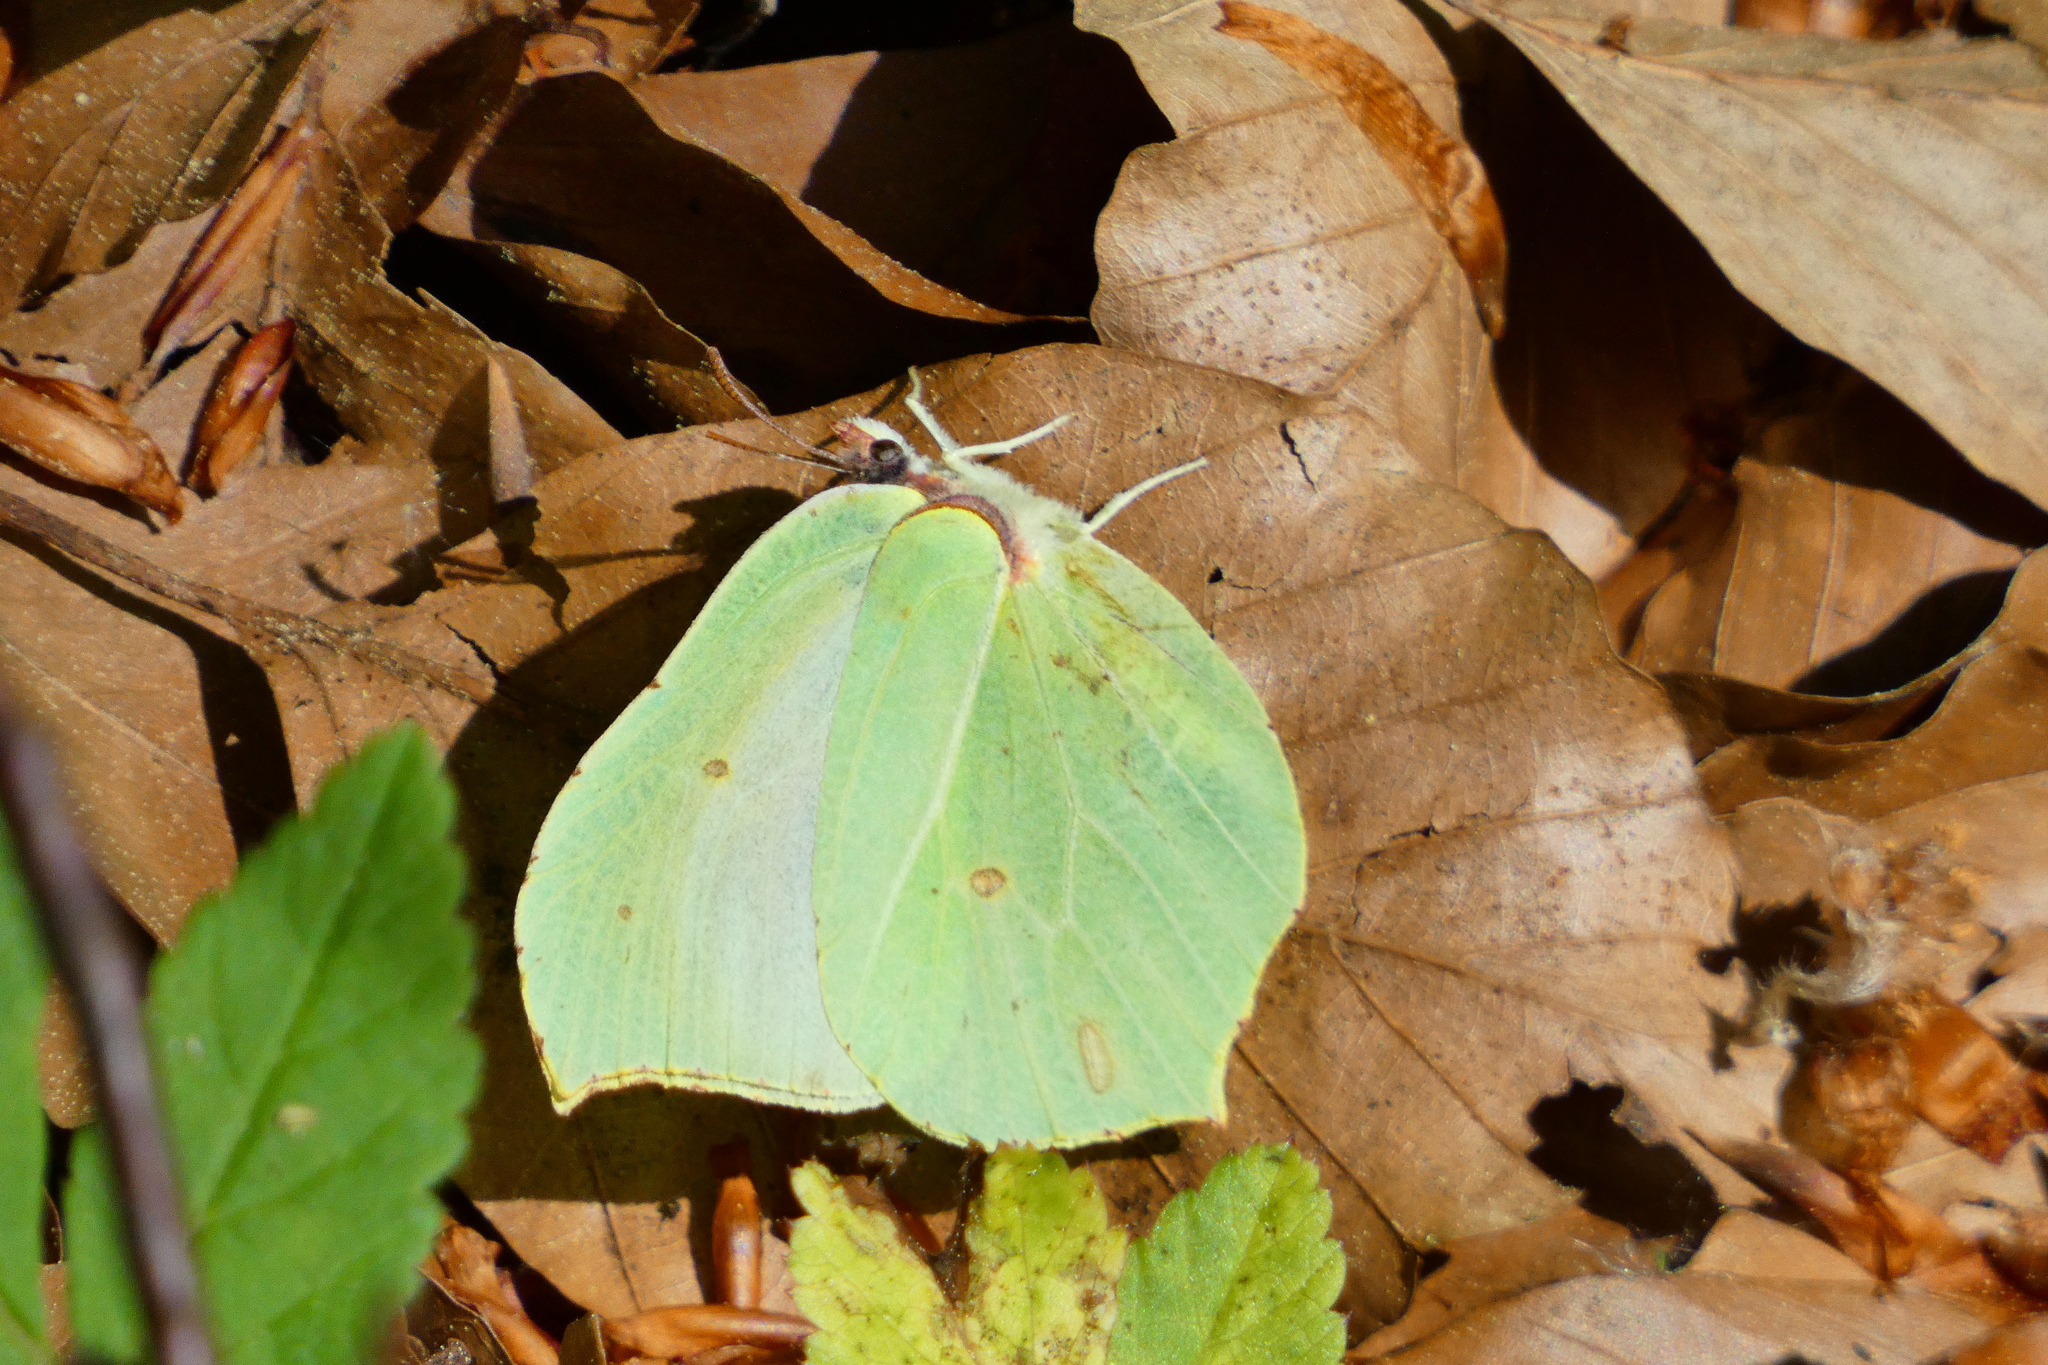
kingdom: Animalia
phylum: Arthropoda
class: Insecta
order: Lepidoptera
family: Pieridae
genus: Gonepteryx
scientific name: Gonepteryx rhamni
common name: Brimstone
